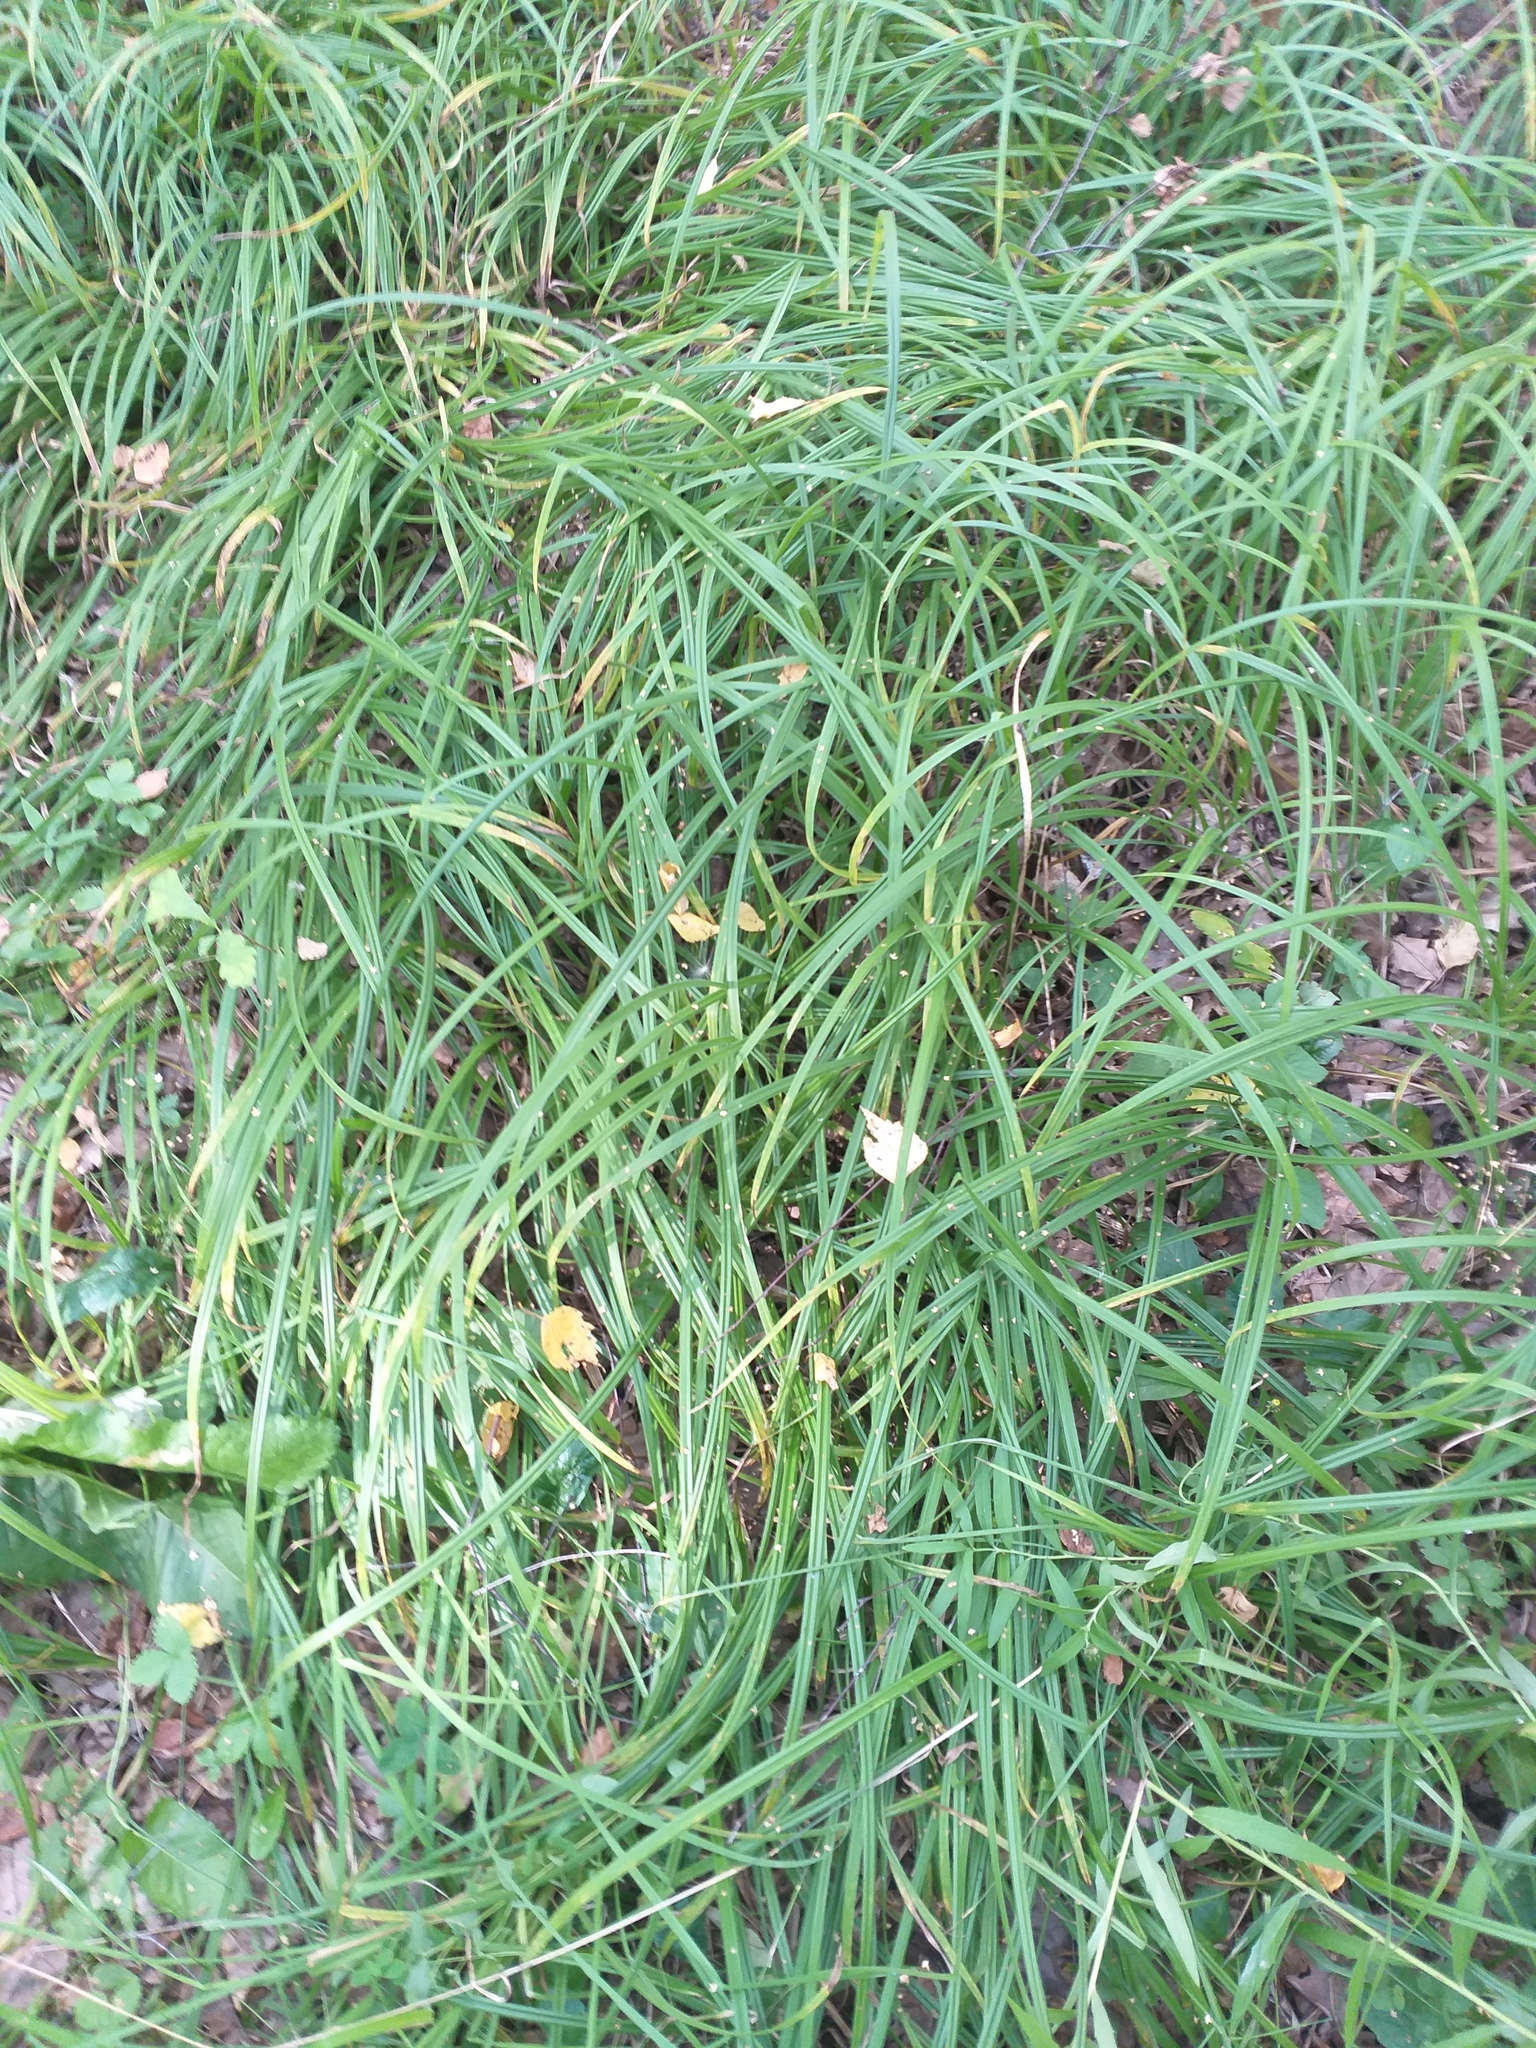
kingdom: Plantae
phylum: Tracheophyta
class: Liliopsida
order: Poales
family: Cyperaceae
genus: Carex
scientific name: Carex pilosa
